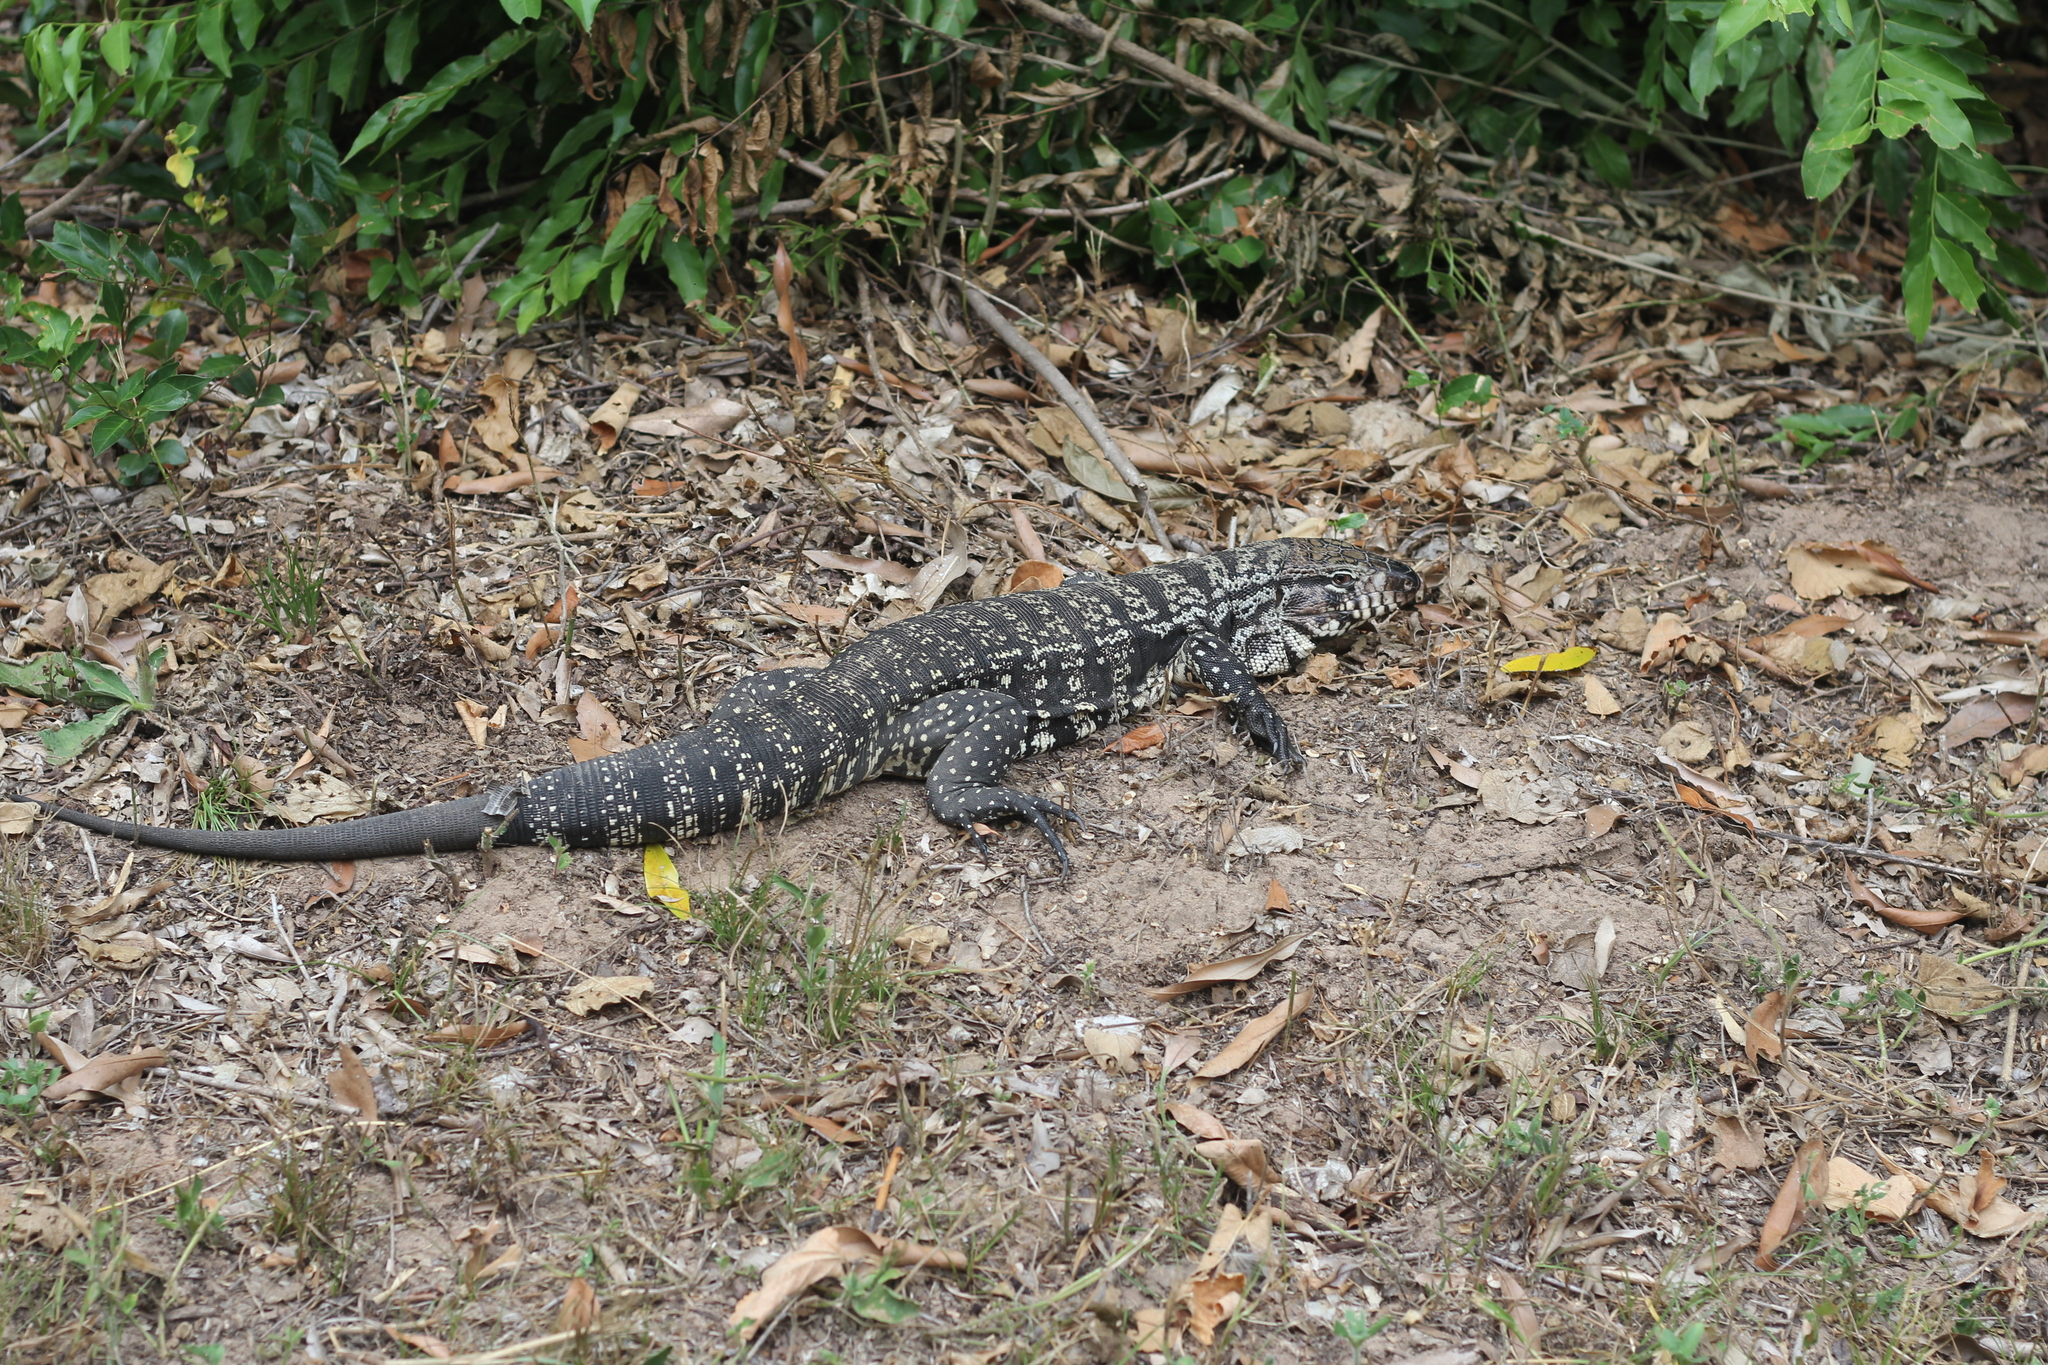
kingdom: Animalia
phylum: Chordata
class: Squamata
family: Teiidae
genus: Salvator
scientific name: Salvator merianae
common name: Argentine black and white tegu
